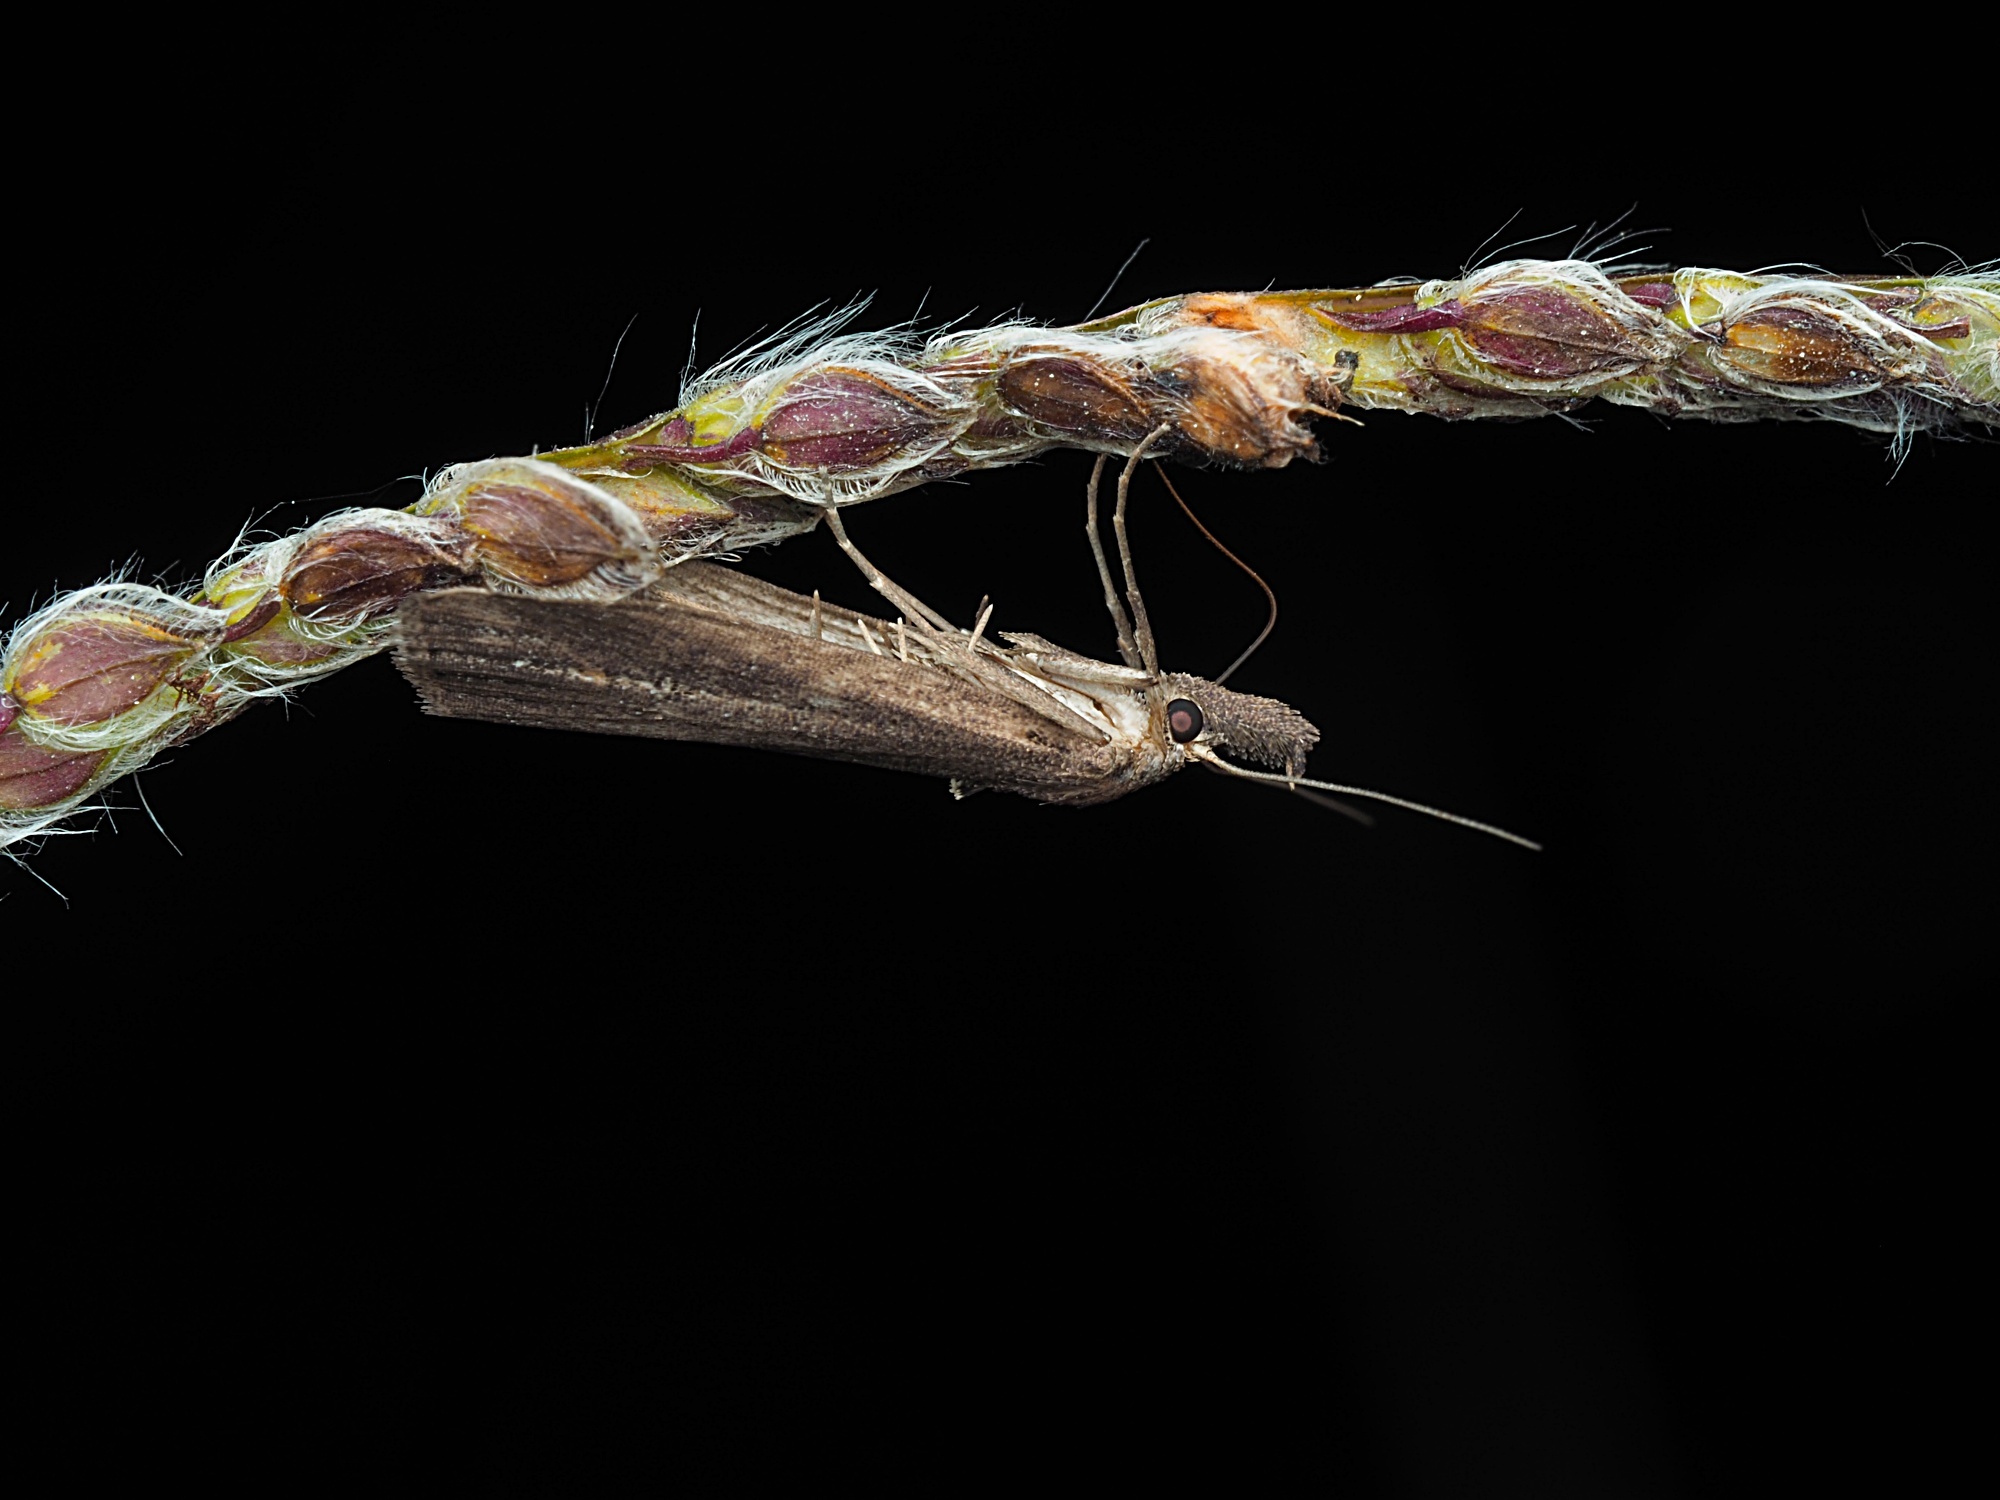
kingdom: Animalia
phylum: Arthropoda
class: Insecta
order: Lepidoptera
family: Erebidae
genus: Schrankia
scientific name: Schrankia costaestrigalis
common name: Pinion-streaked snout
